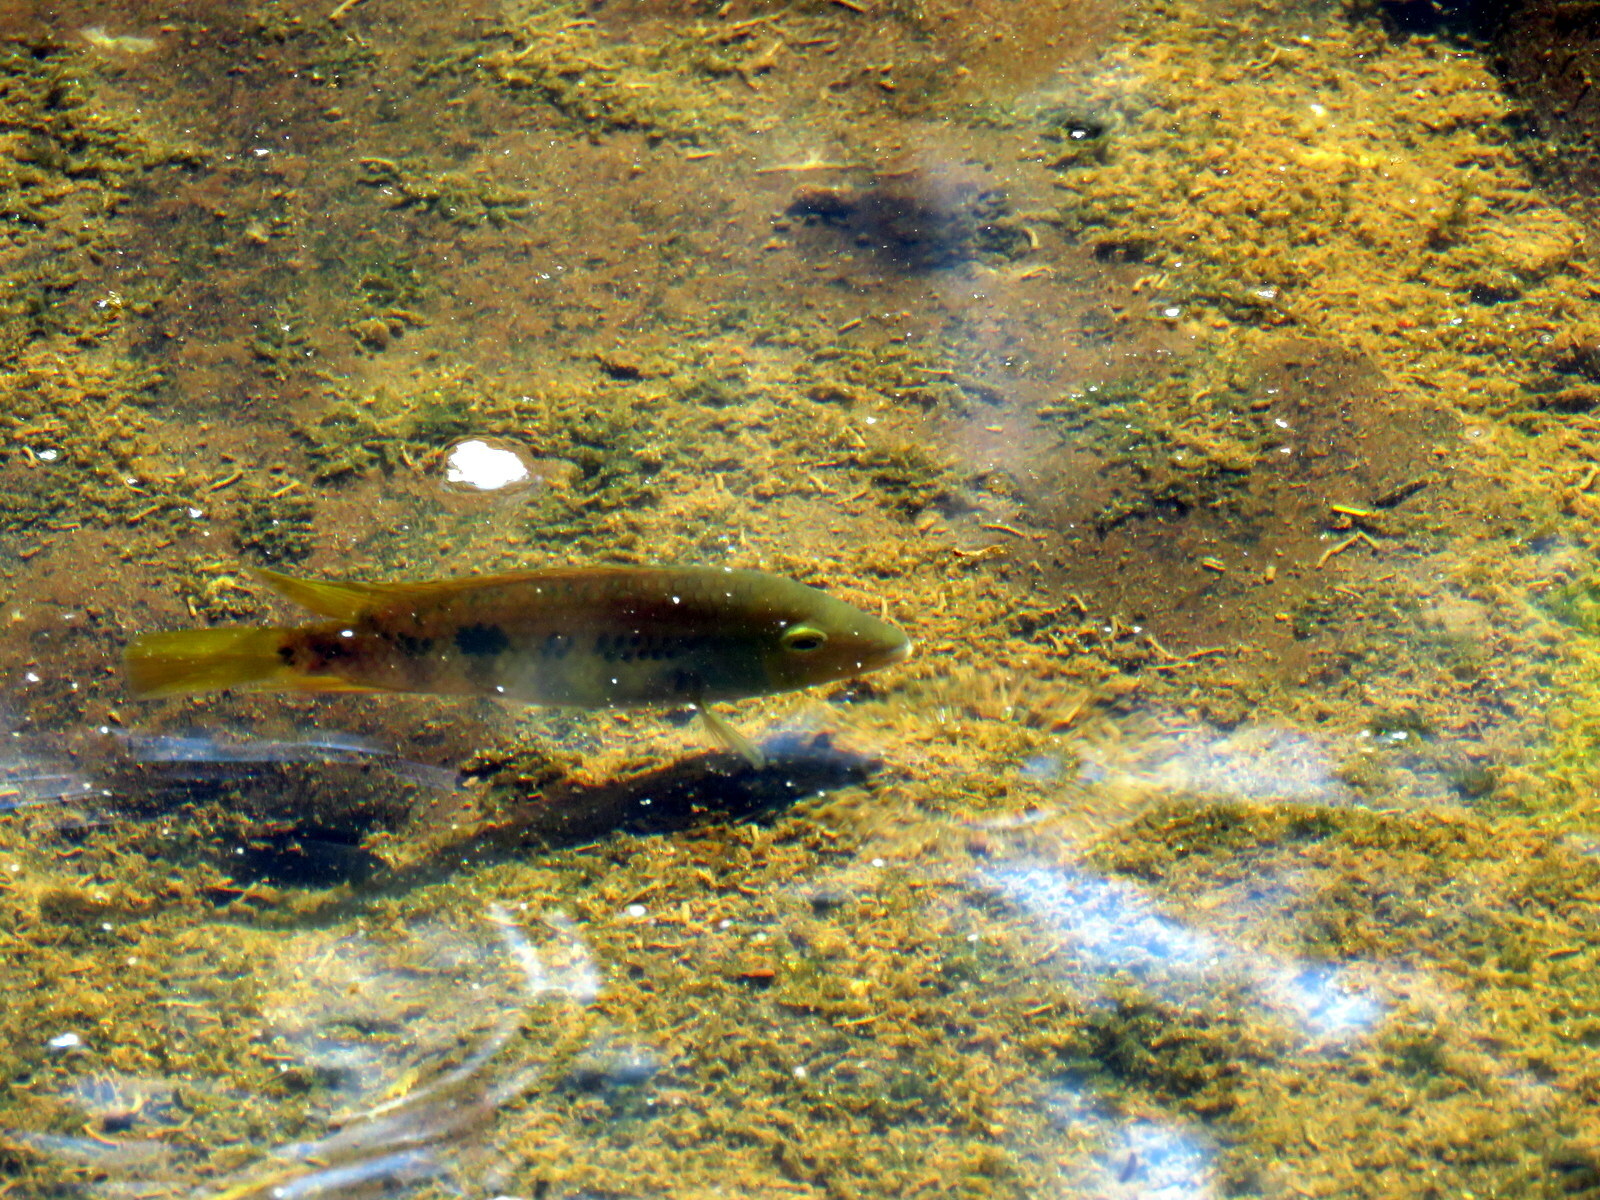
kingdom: Animalia
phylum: Chordata
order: Perciformes
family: Cichlidae
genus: Australoheros
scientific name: Australoheros tembe
